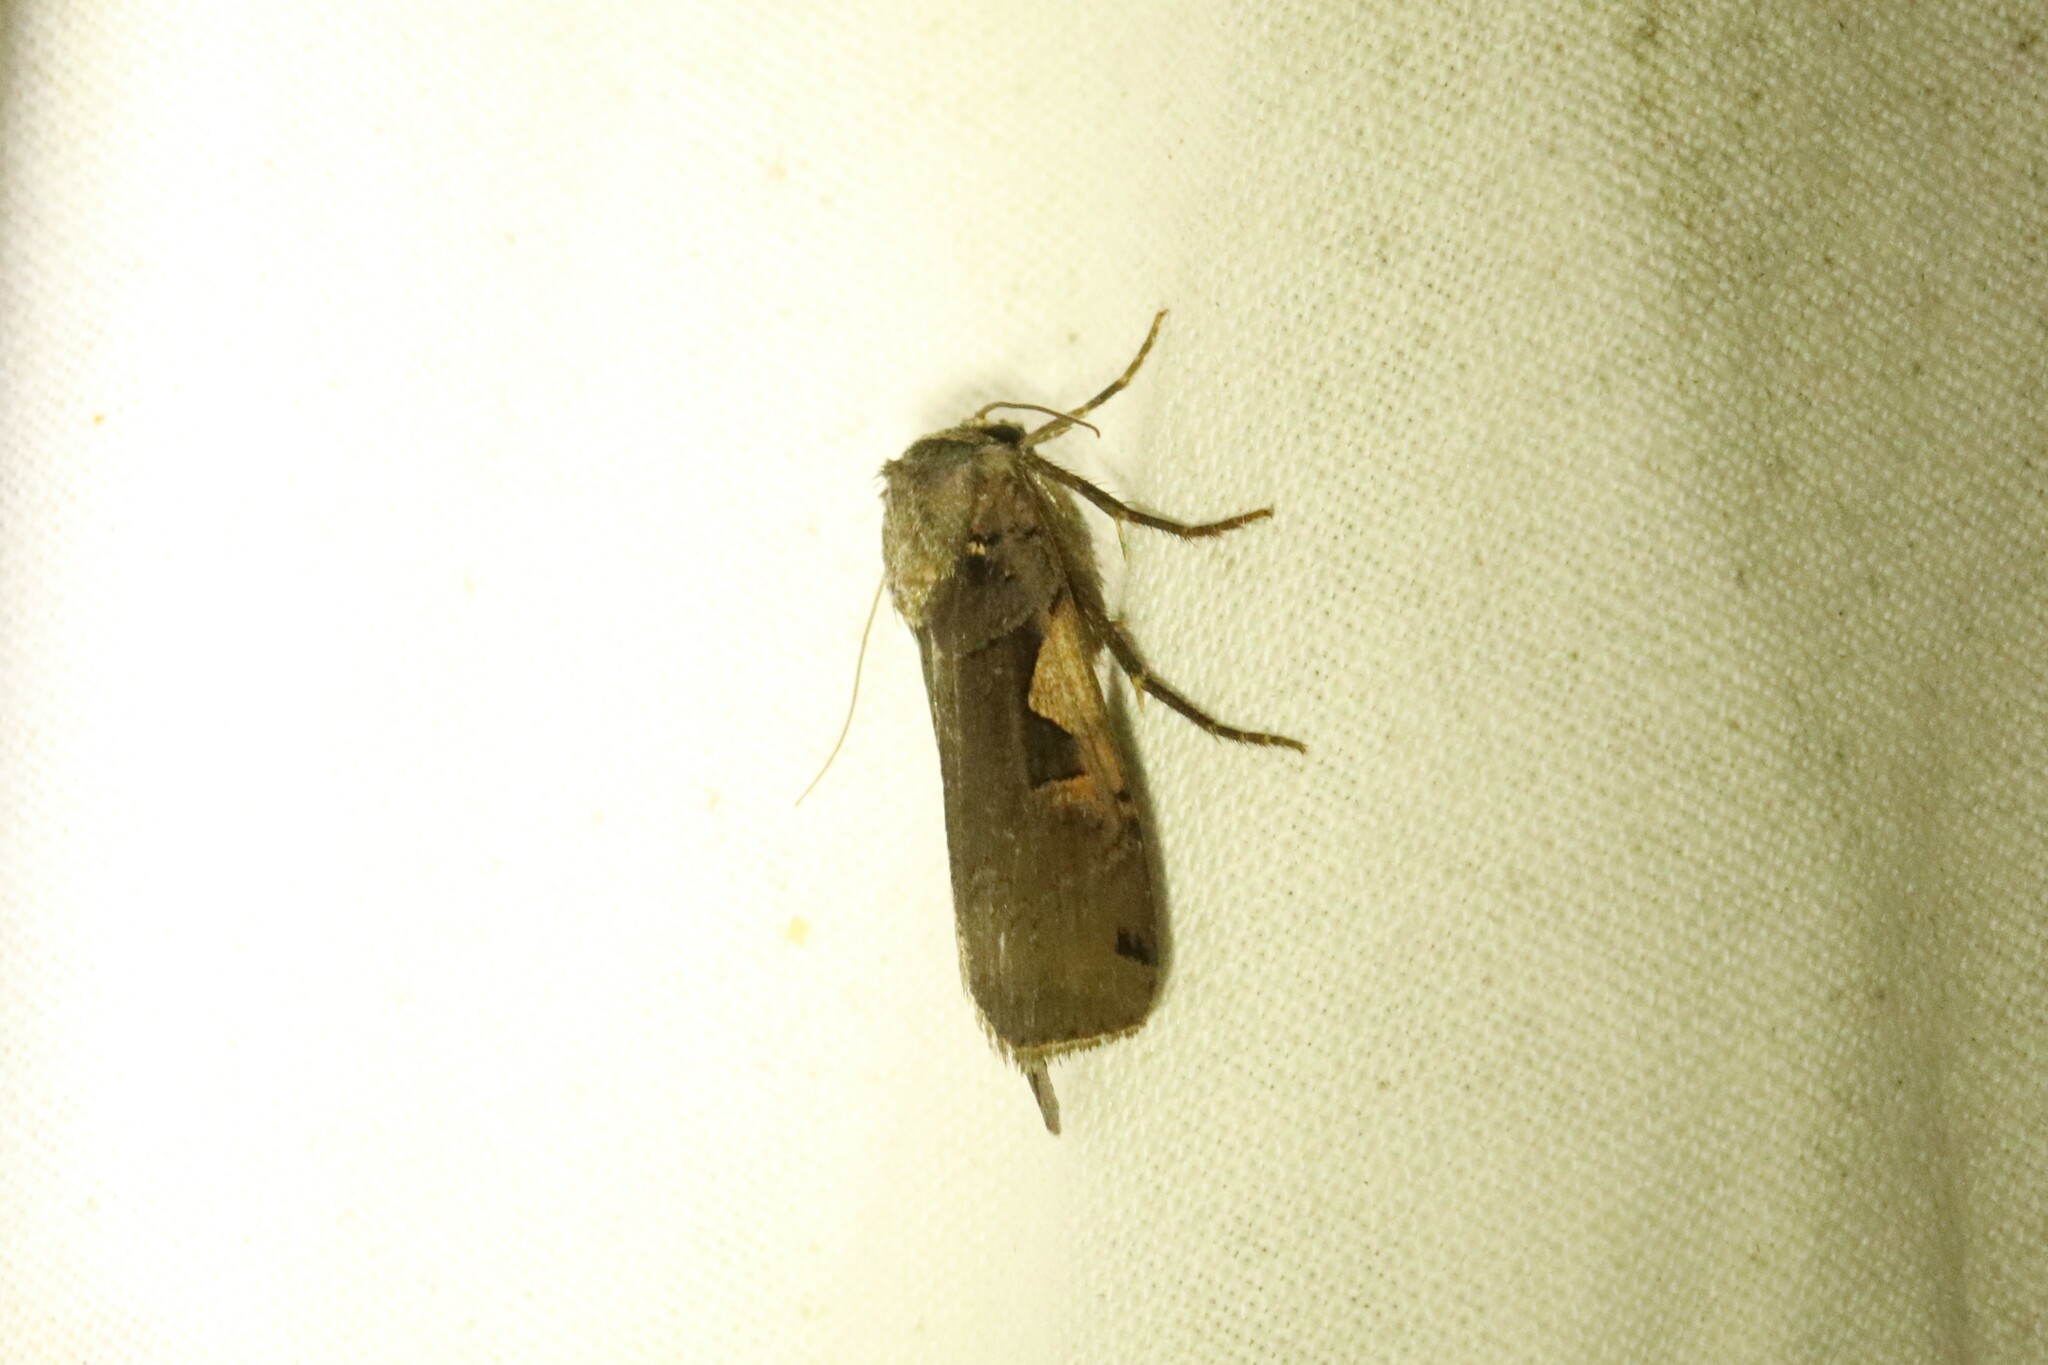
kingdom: Animalia
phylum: Arthropoda
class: Insecta
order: Lepidoptera
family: Noctuidae
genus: Xestia
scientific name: Xestia
